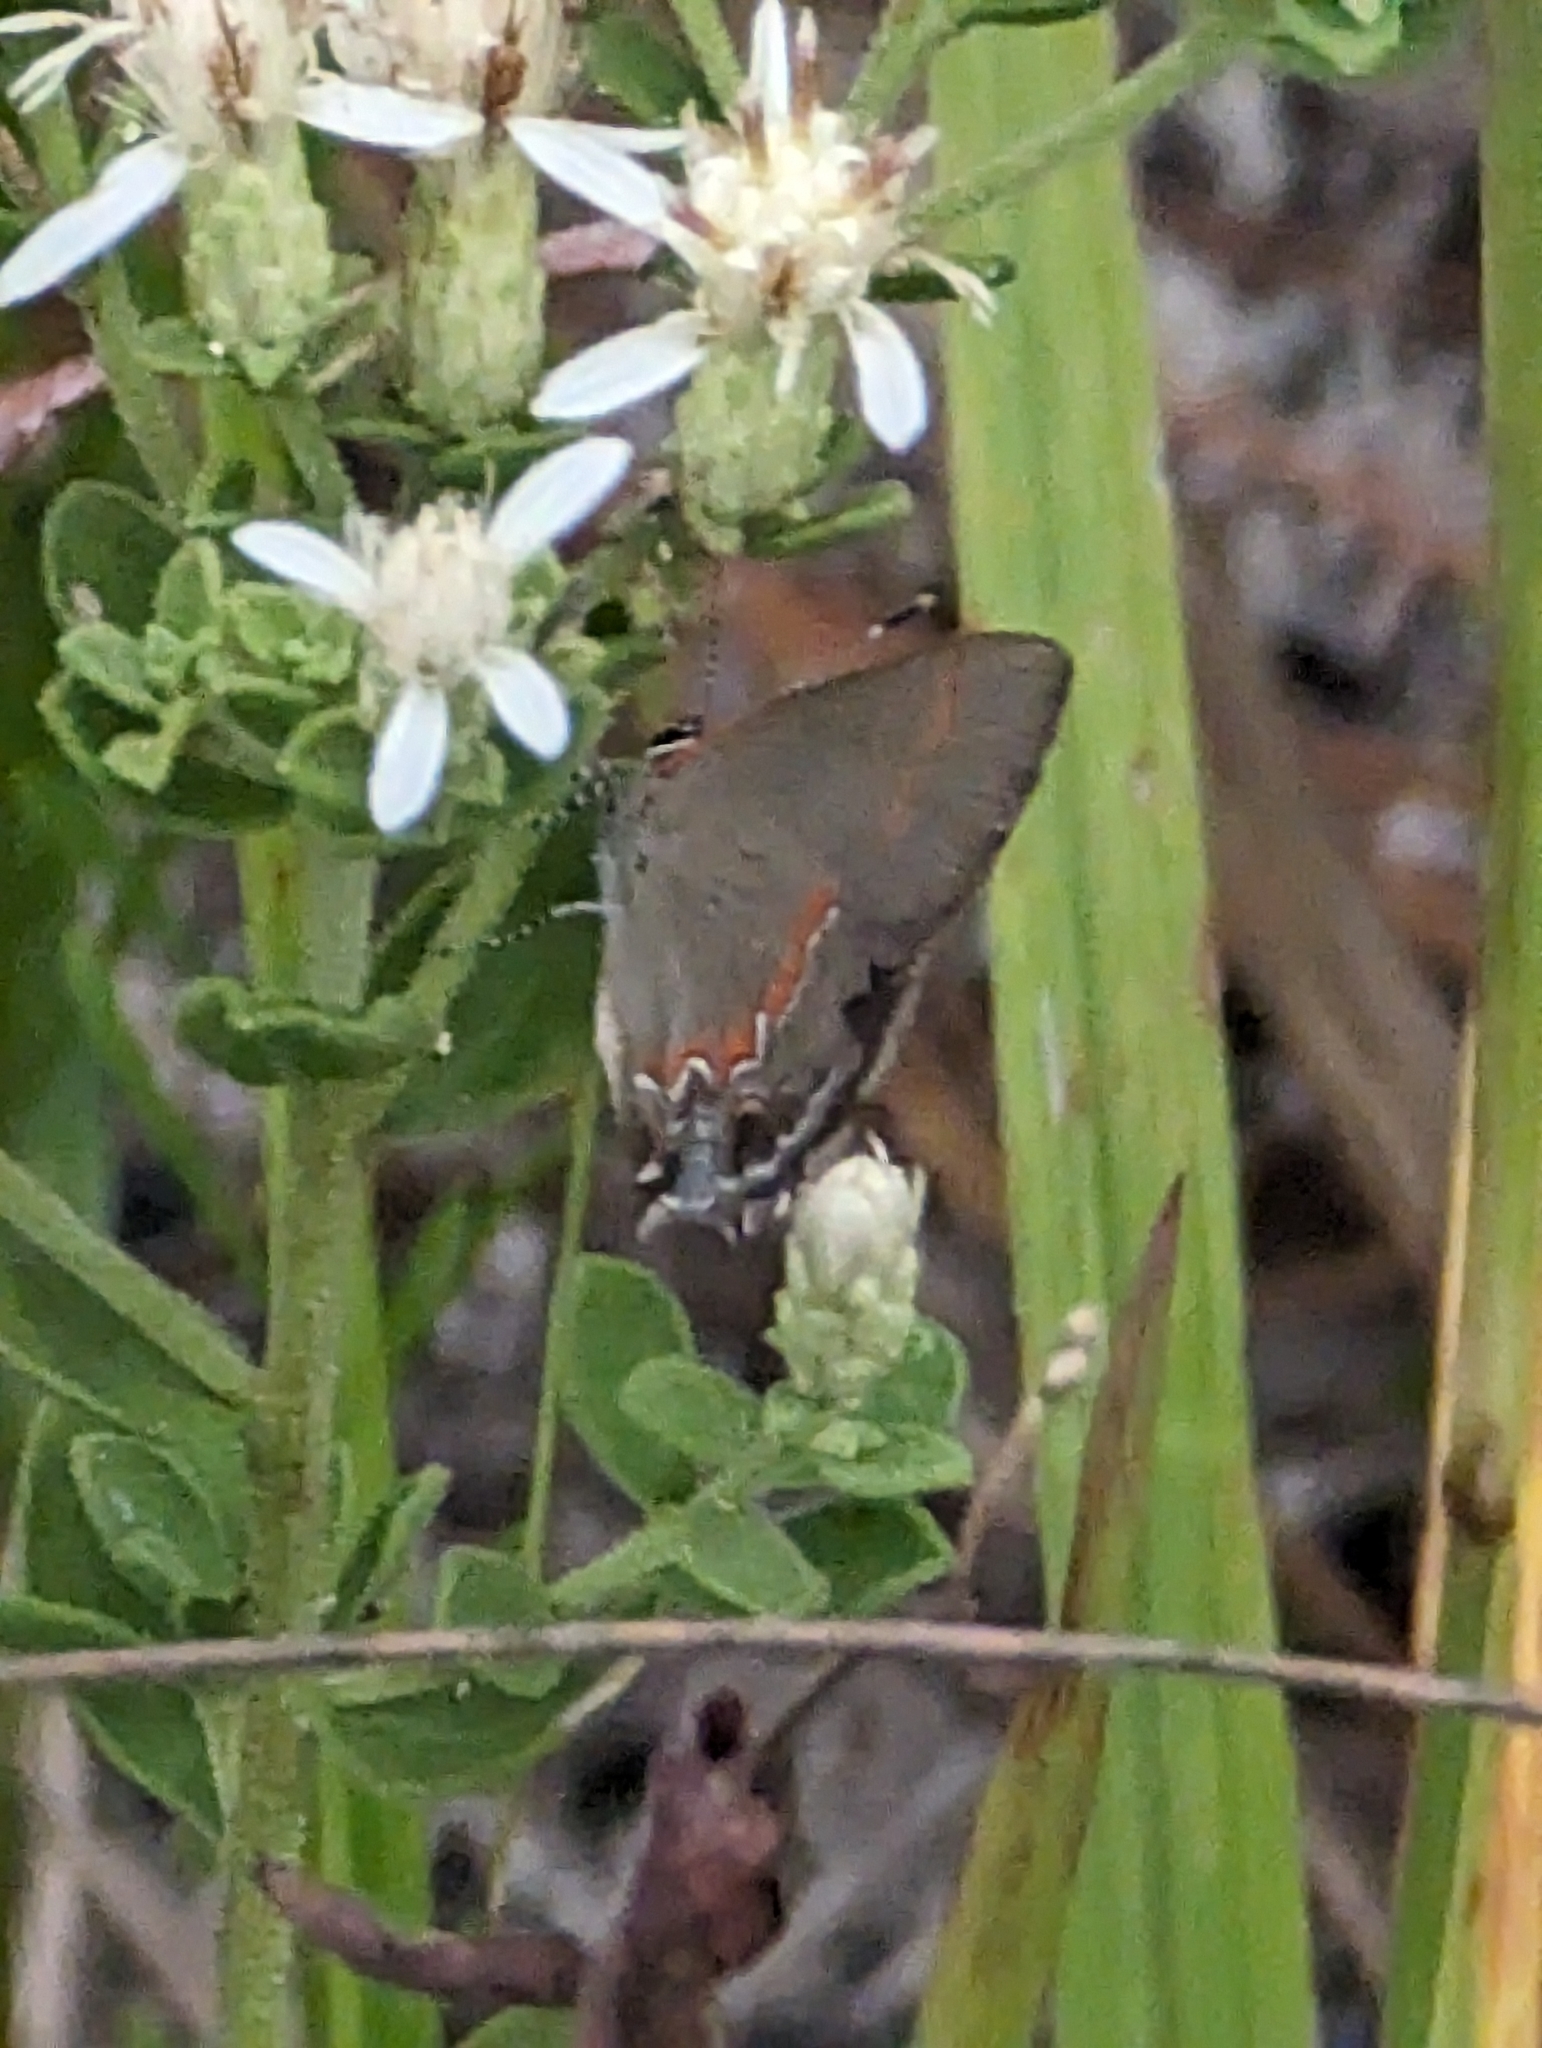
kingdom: Animalia
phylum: Arthropoda
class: Insecta
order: Lepidoptera
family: Lycaenidae
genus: Calycopis
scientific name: Calycopis cecrops
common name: Red-banded hairstreak
